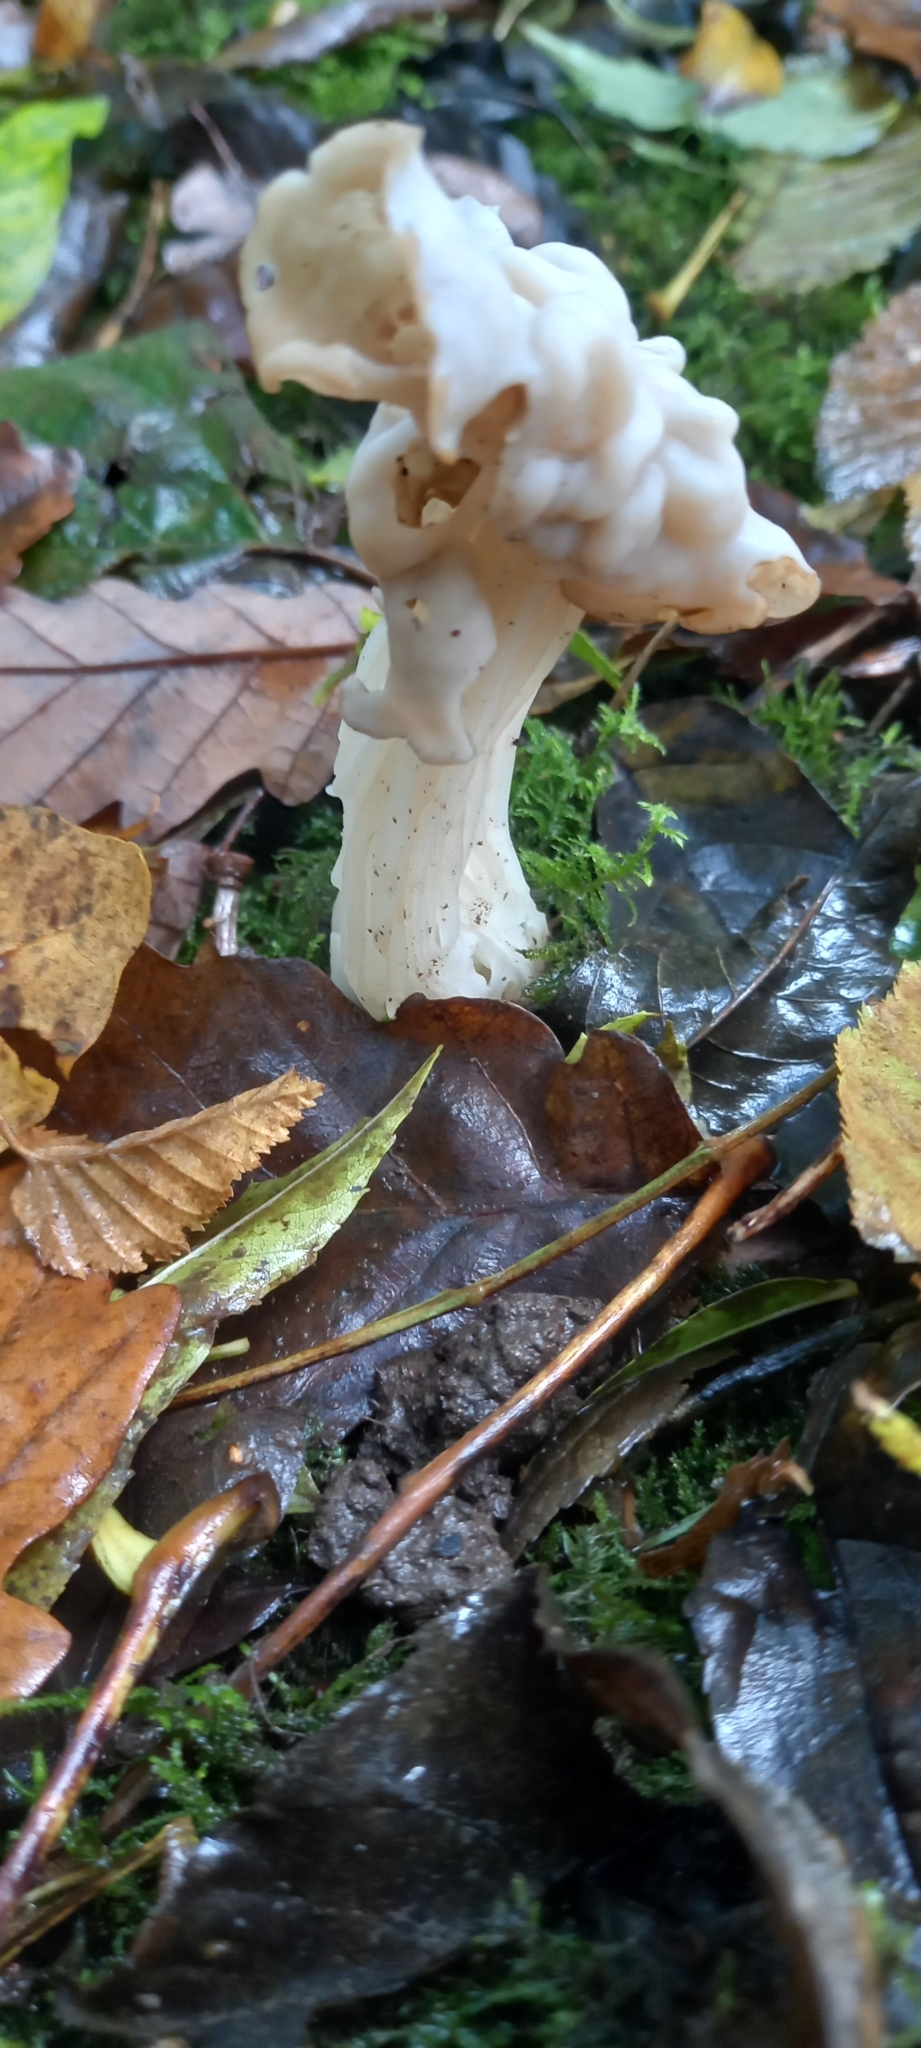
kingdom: Fungi
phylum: Ascomycota
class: Pezizomycetes
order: Pezizales
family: Helvellaceae
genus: Helvella
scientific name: Helvella crispa
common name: White saddle
